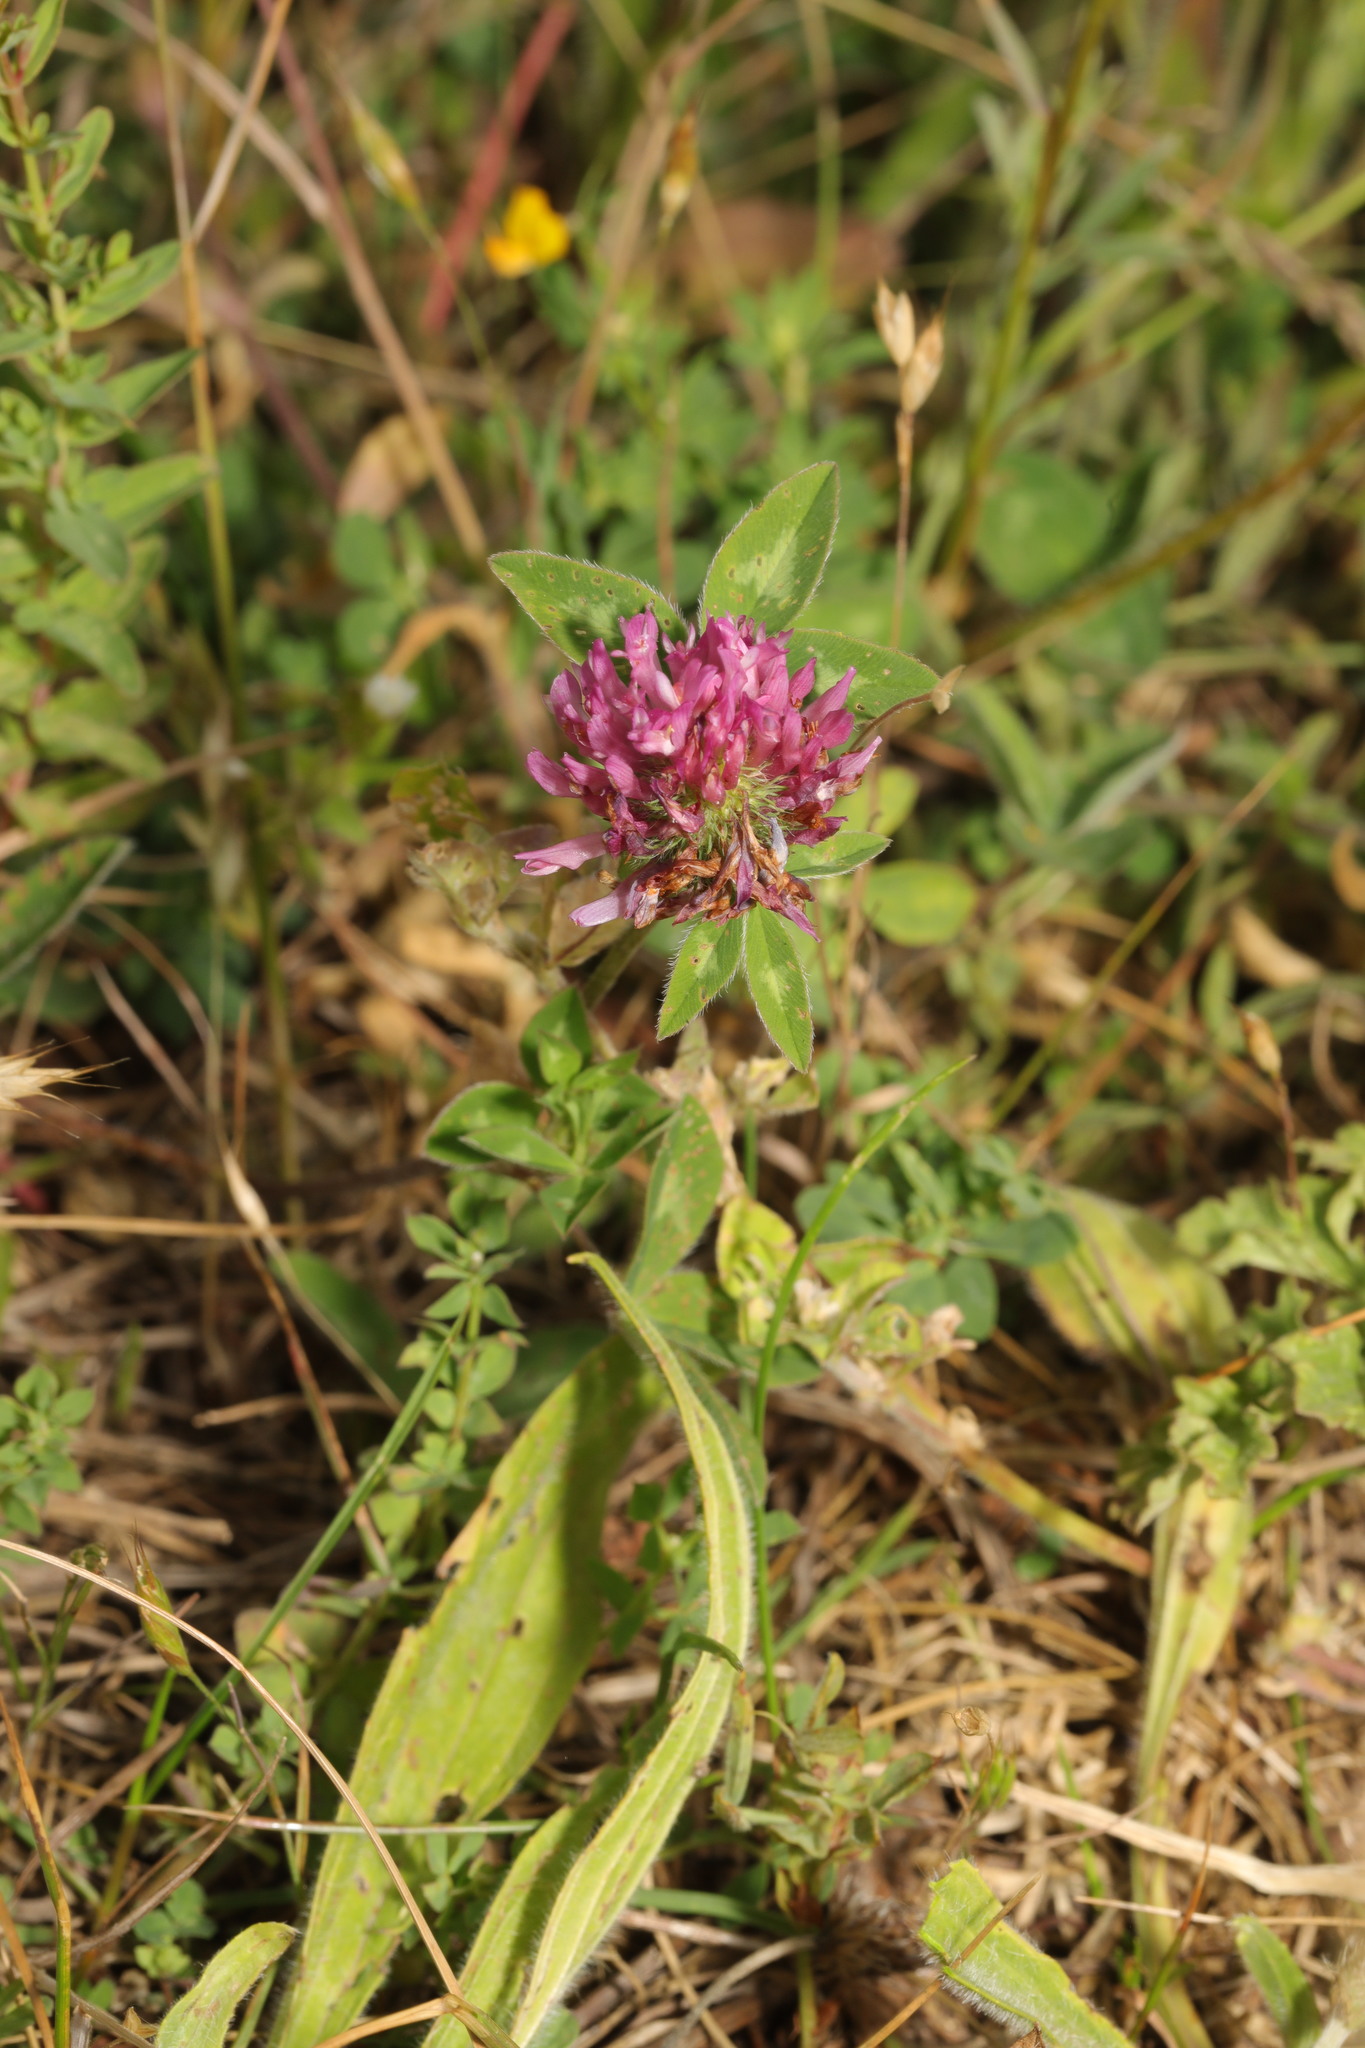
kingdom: Plantae
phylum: Tracheophyta
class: Magnoliopsida
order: Fabales
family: Fabaceae
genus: Trifolium
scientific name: Trifolium pratense
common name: Red clover
